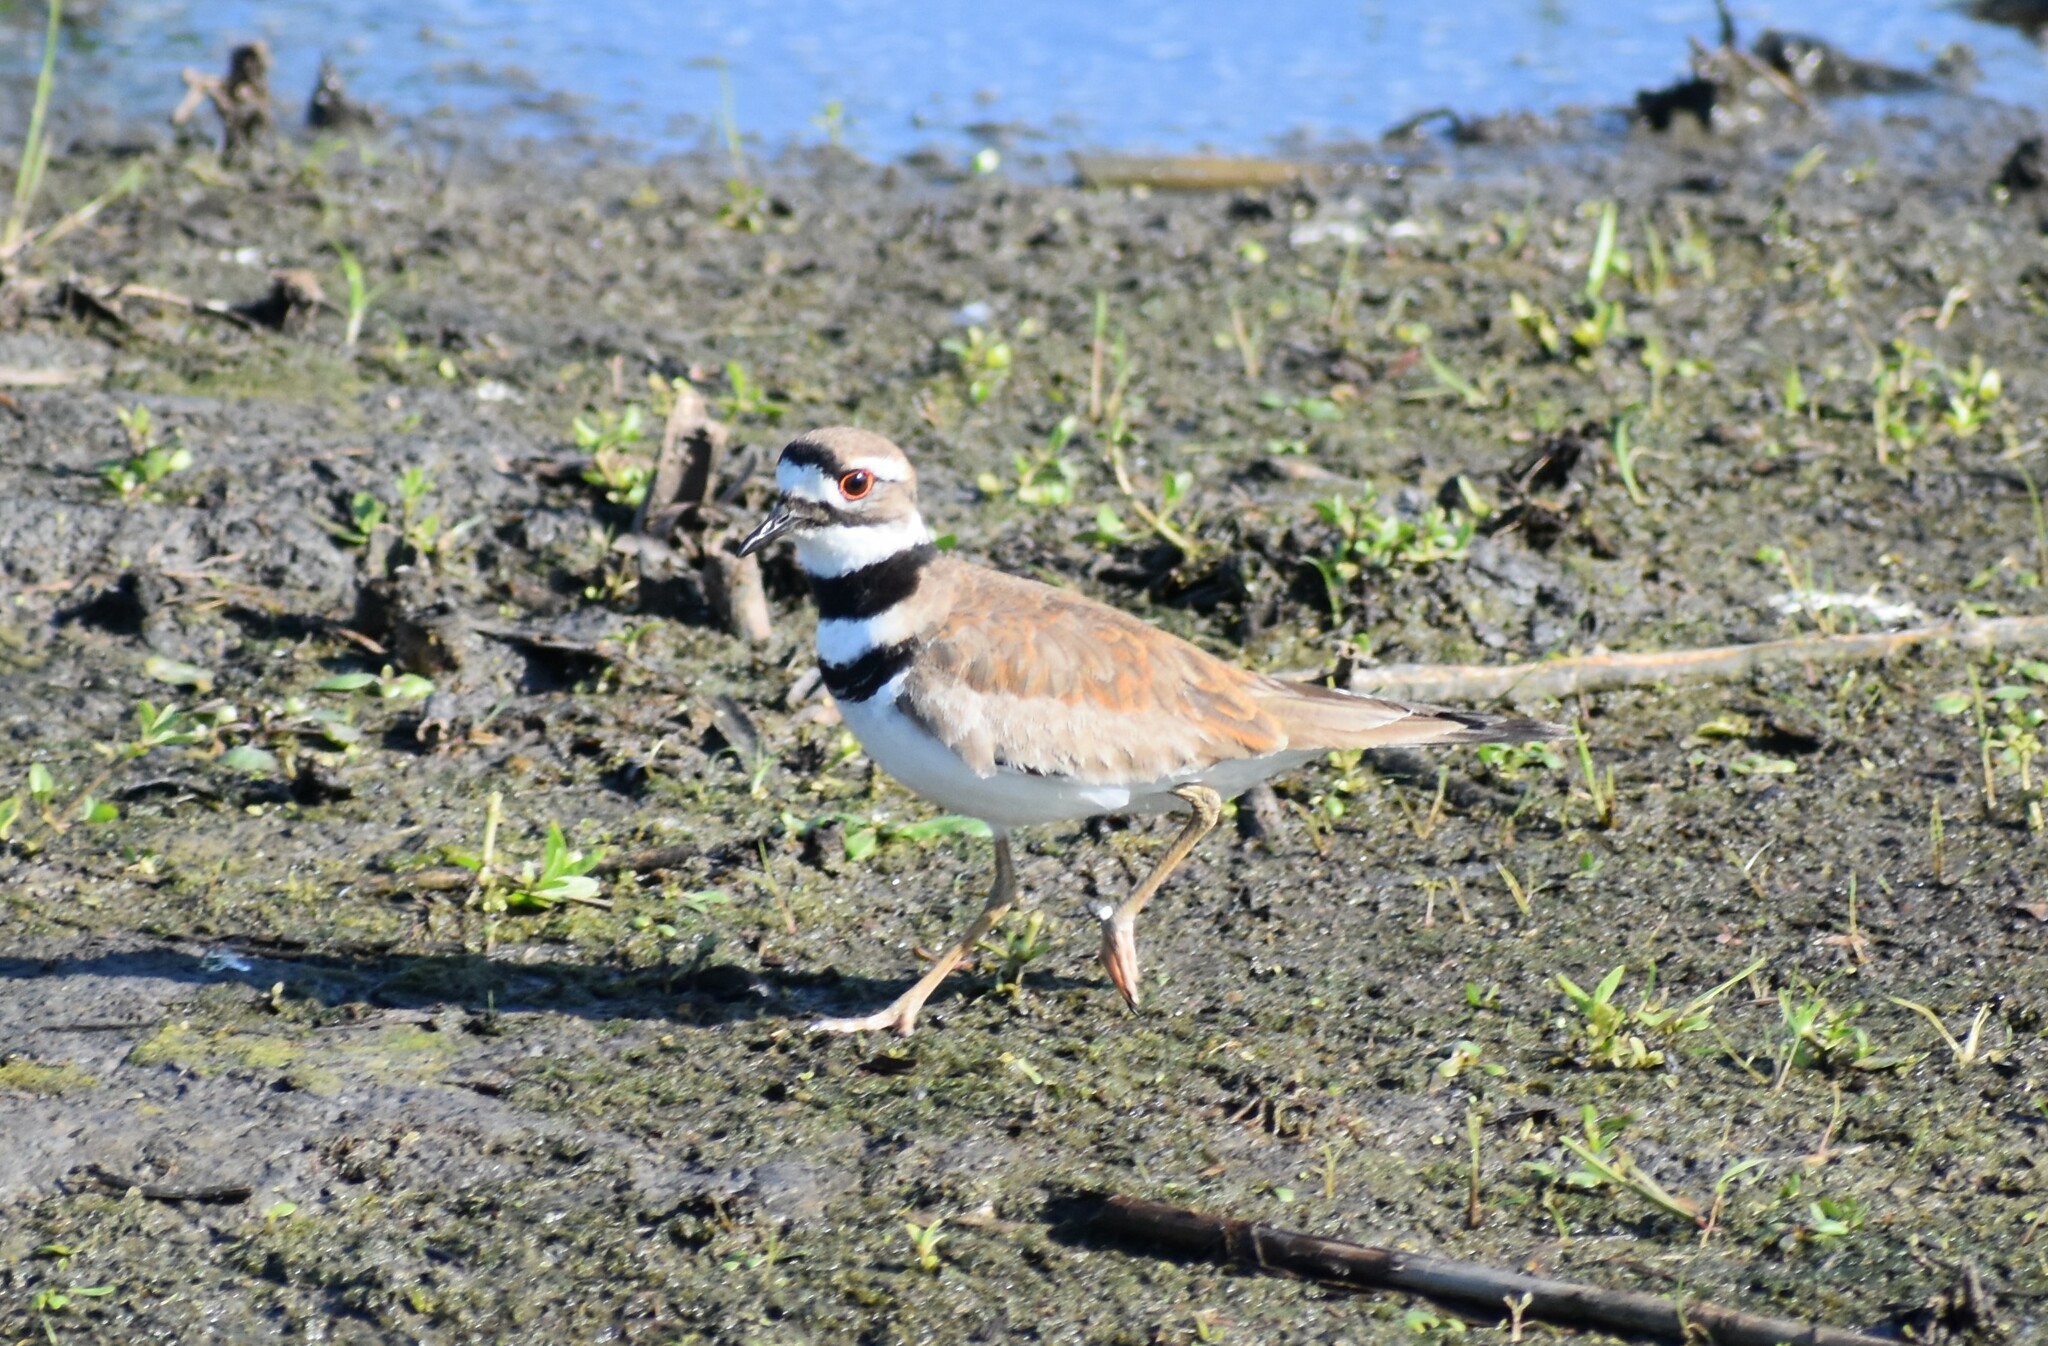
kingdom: Animalia
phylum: Chordata
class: Aves
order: Charadriiformes
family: Charadriidae
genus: Charadrius
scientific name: Charadrius vociferus
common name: Killdeer
